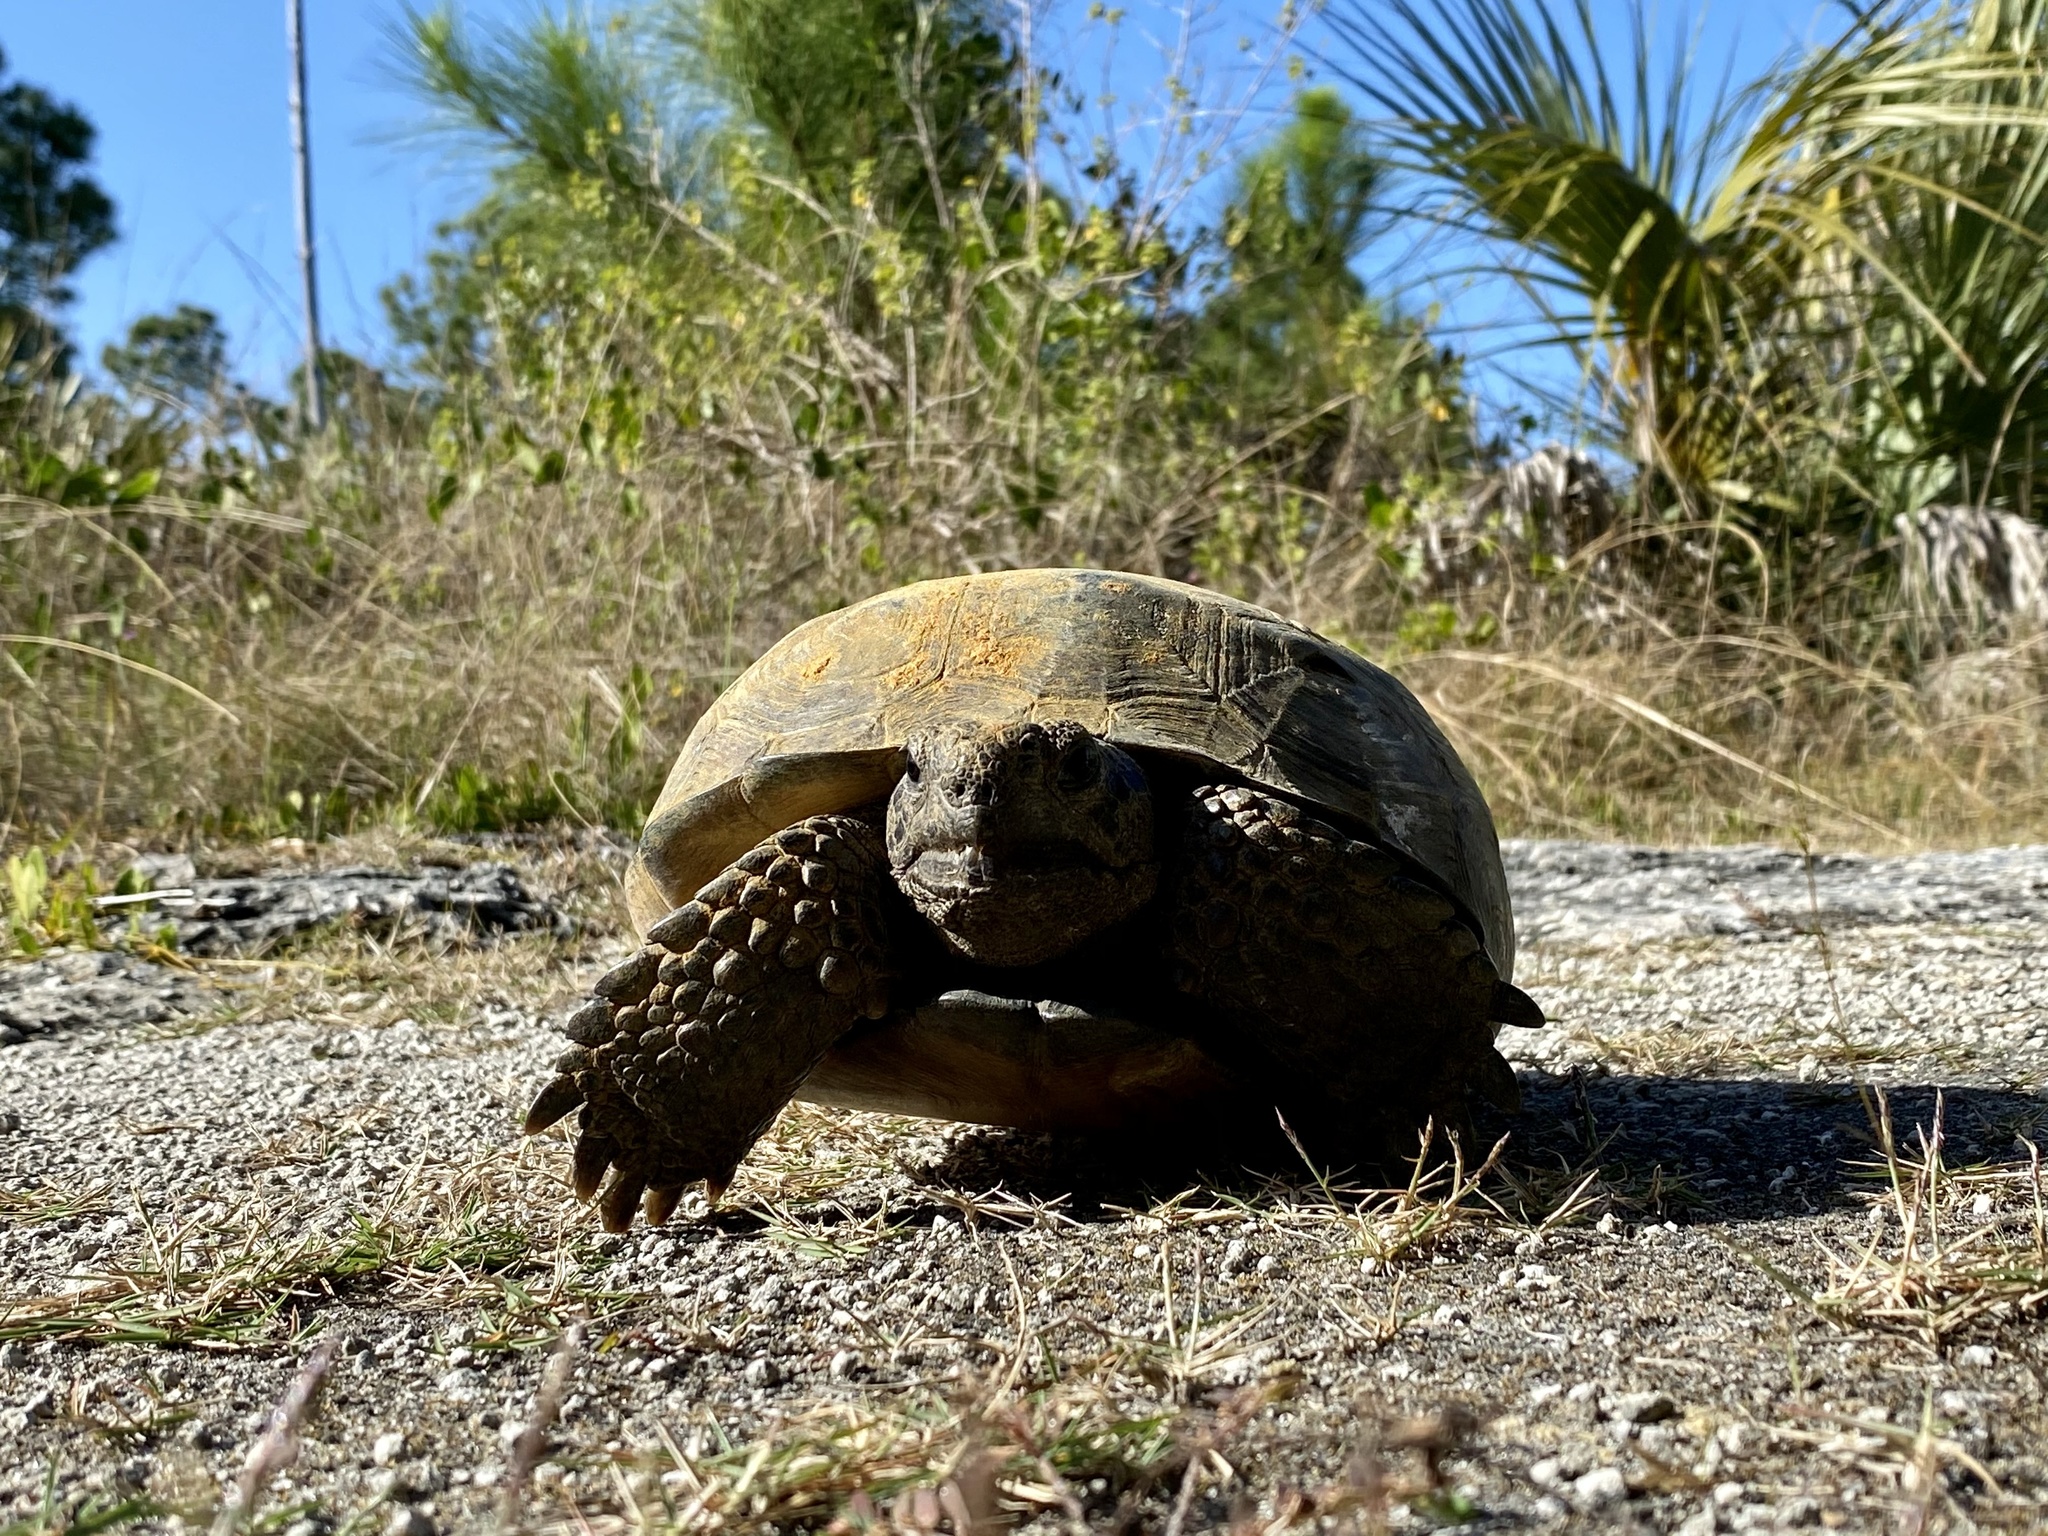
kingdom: Animalia
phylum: Chordata
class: Testudines
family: Testudinidae
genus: Gopherus
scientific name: Gopherus polyphemus
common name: Florida gopher tortoise
